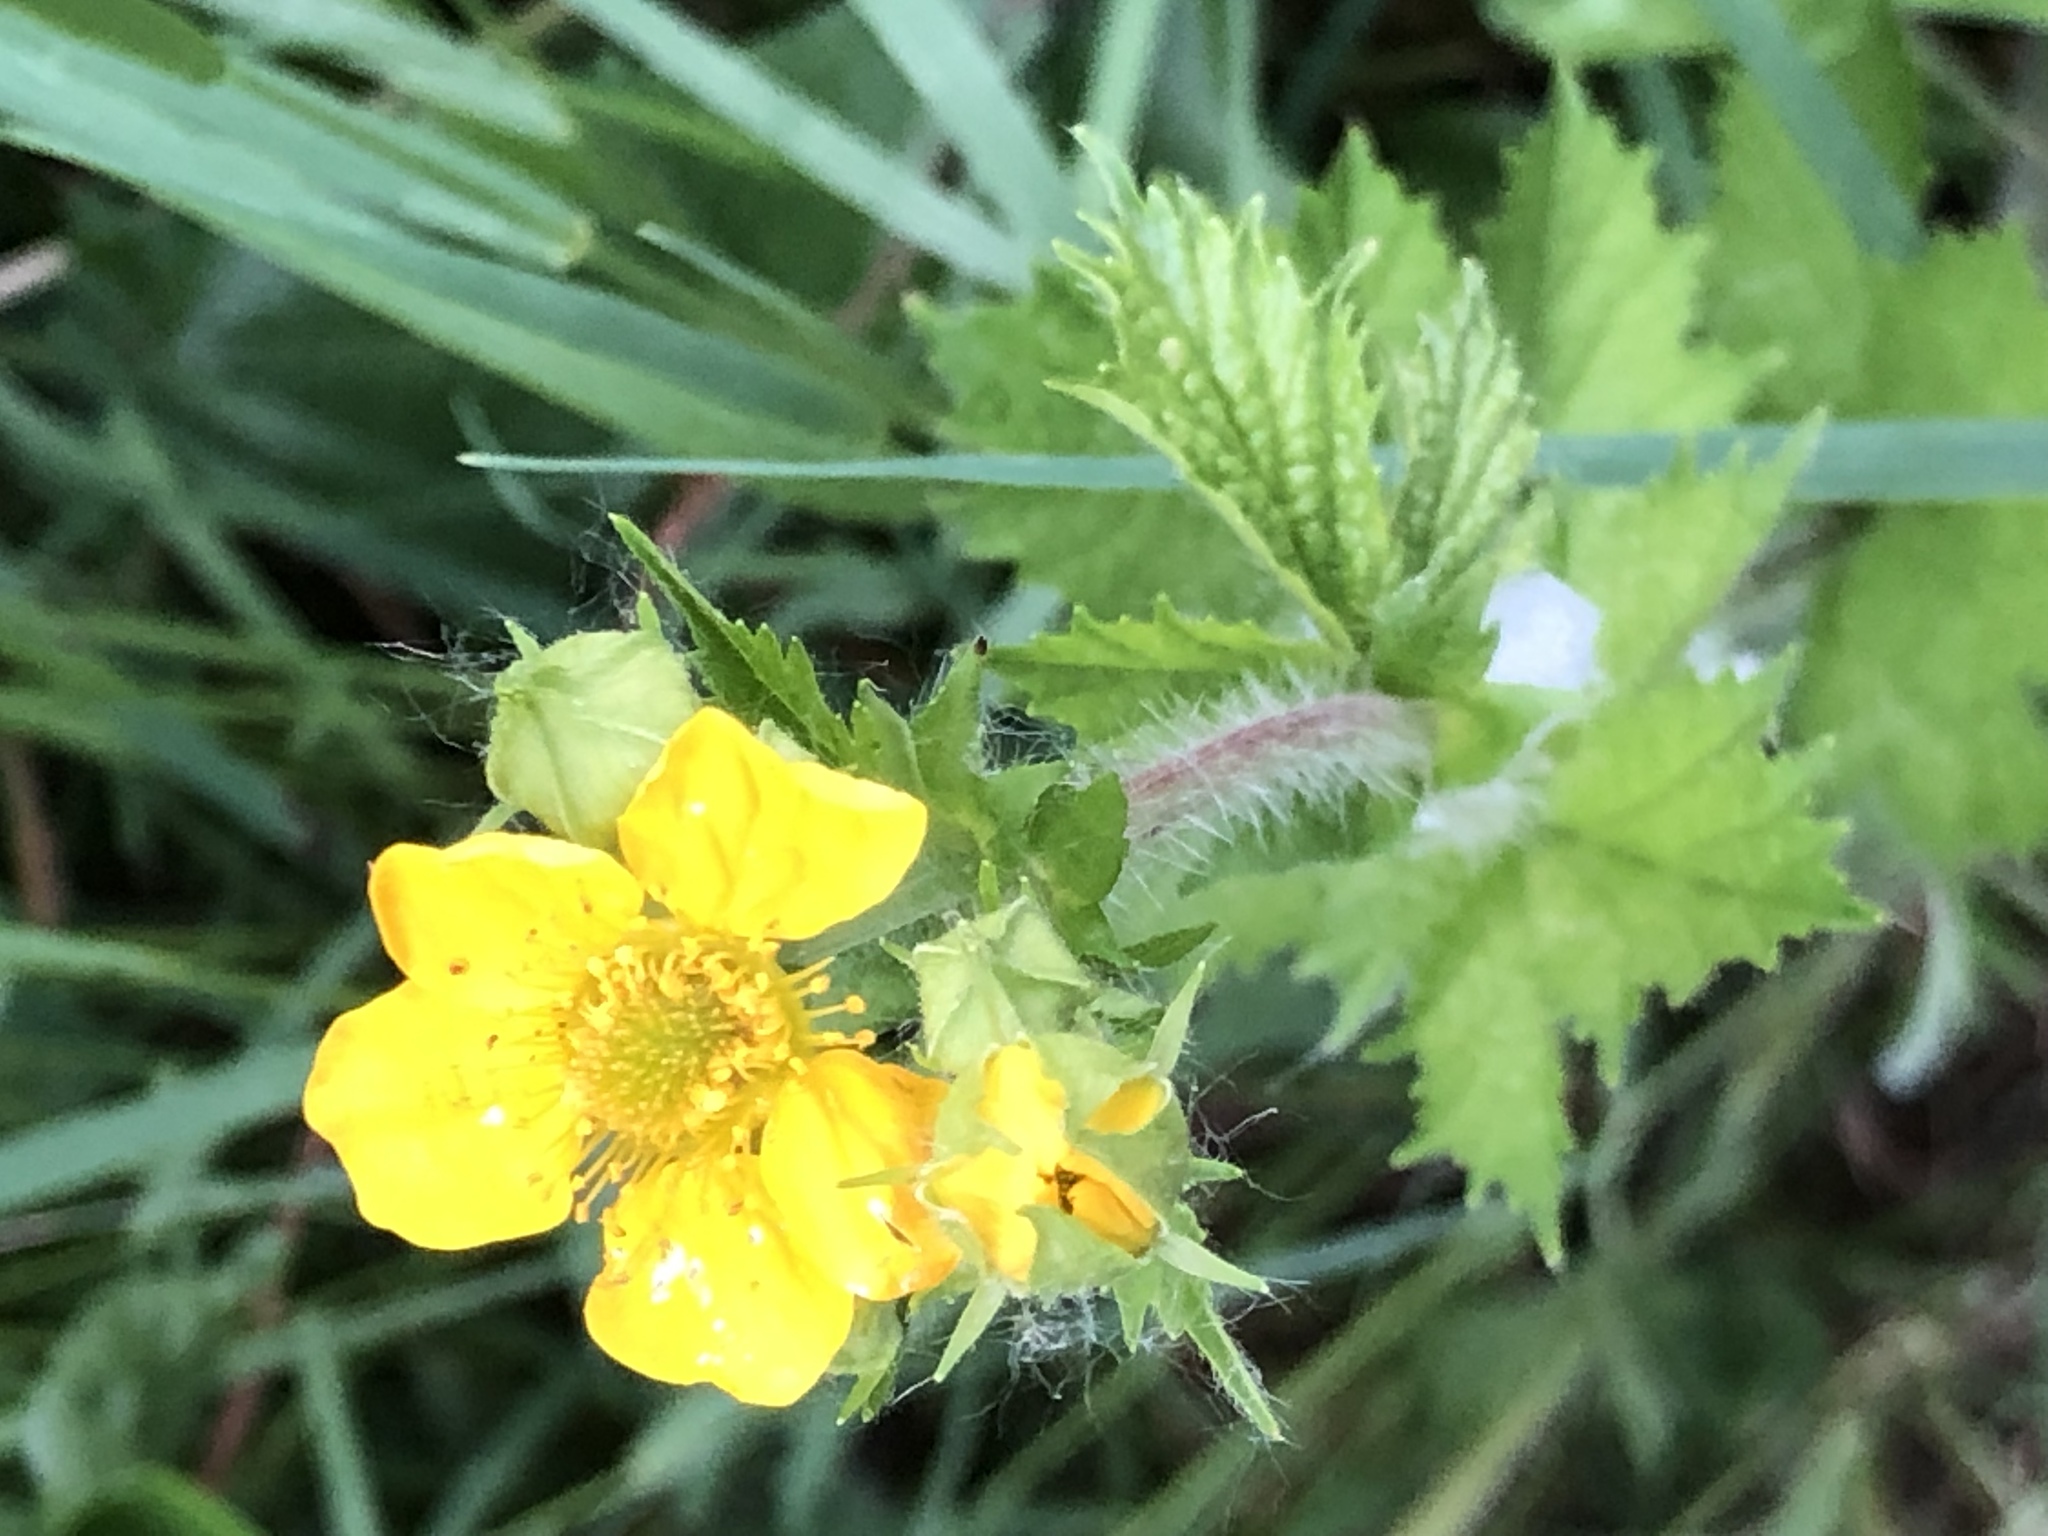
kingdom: Plantae
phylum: Tracheophyta
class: Magnoliopsida
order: Rosales
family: Rosaceae
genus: Geum
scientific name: Geum macrophyllum
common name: Large-leaved avens
